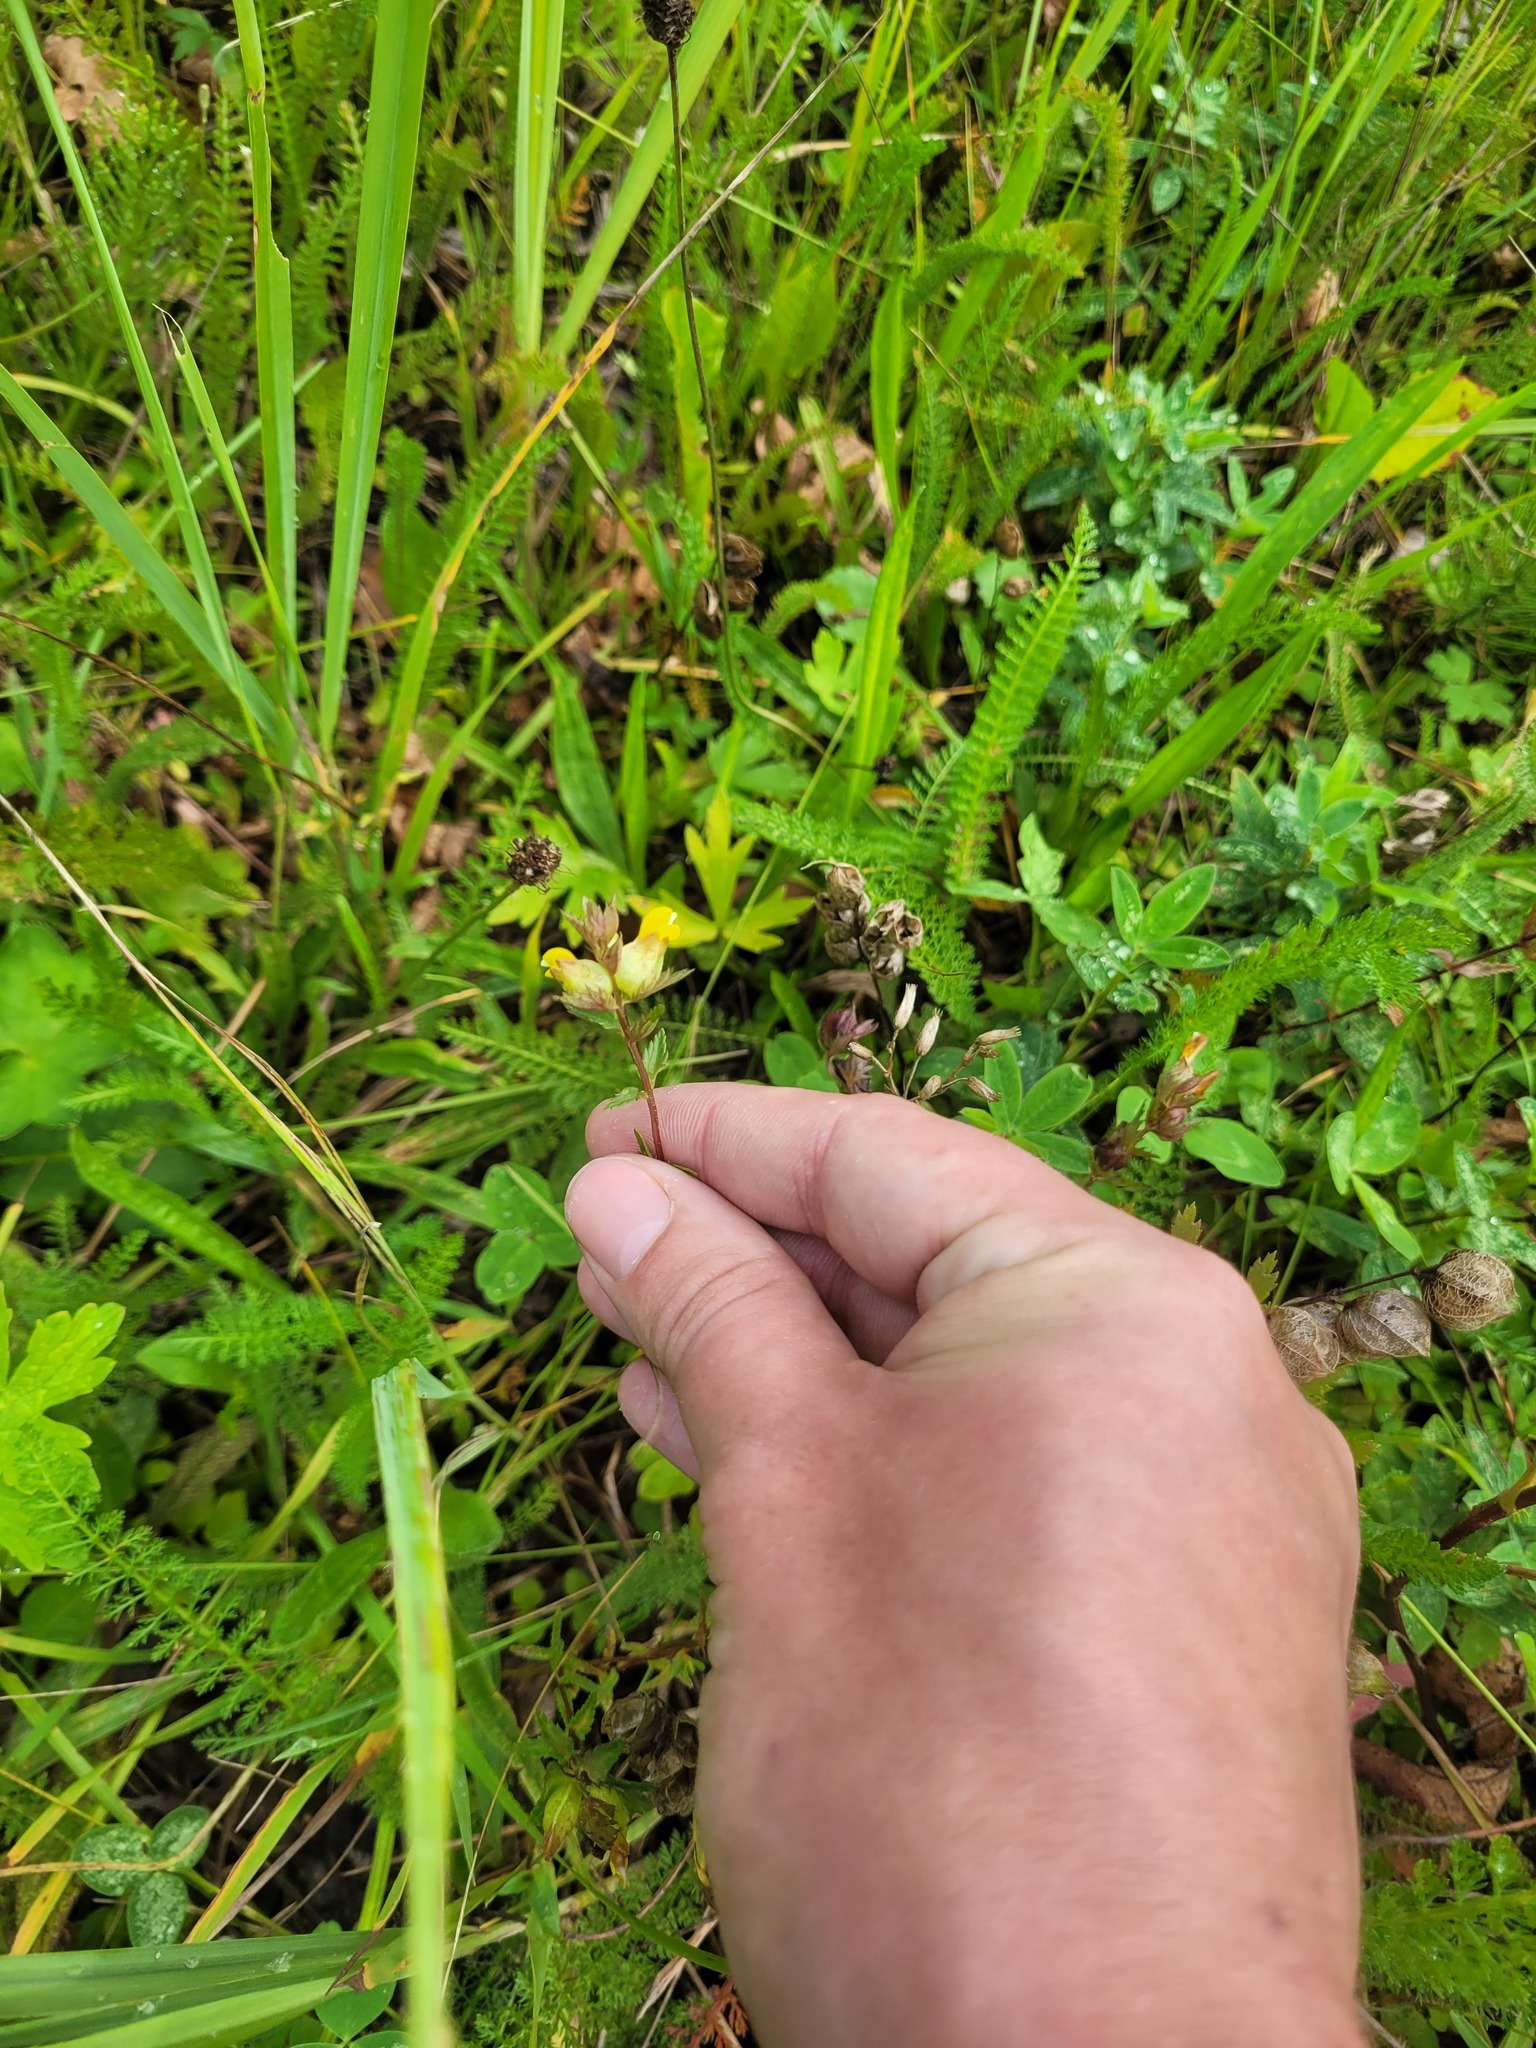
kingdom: Plantae
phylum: Tracheophyta
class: Magnoliopsida
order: Lamiales
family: Orobanchaceae
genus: Rhinanthus
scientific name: Rhinanthus minor
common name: Yellow-rattle
